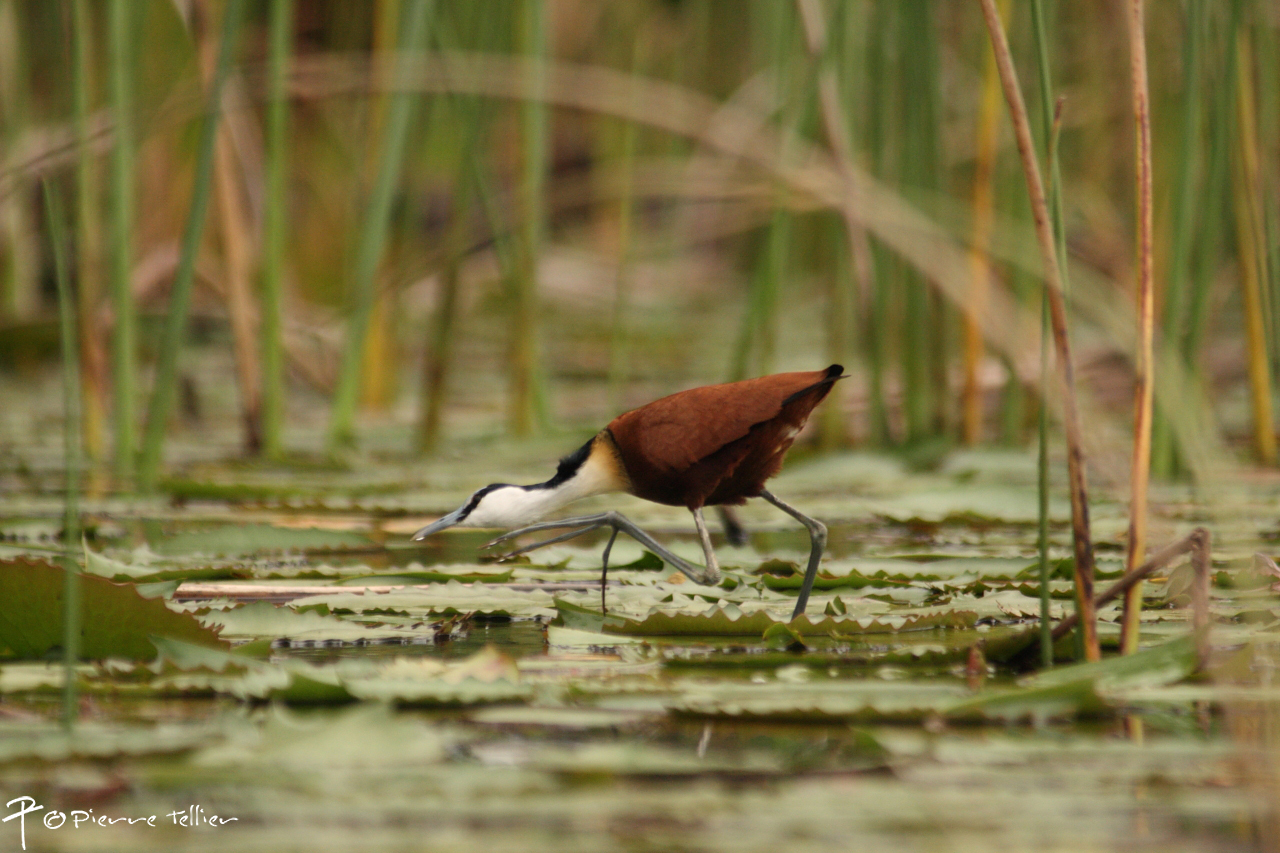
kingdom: Animalia
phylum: Chordata
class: Aves
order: Charadriiformes
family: Jacanidae
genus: Actophilornis
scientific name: Actophilornis africanus
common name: African jacana
